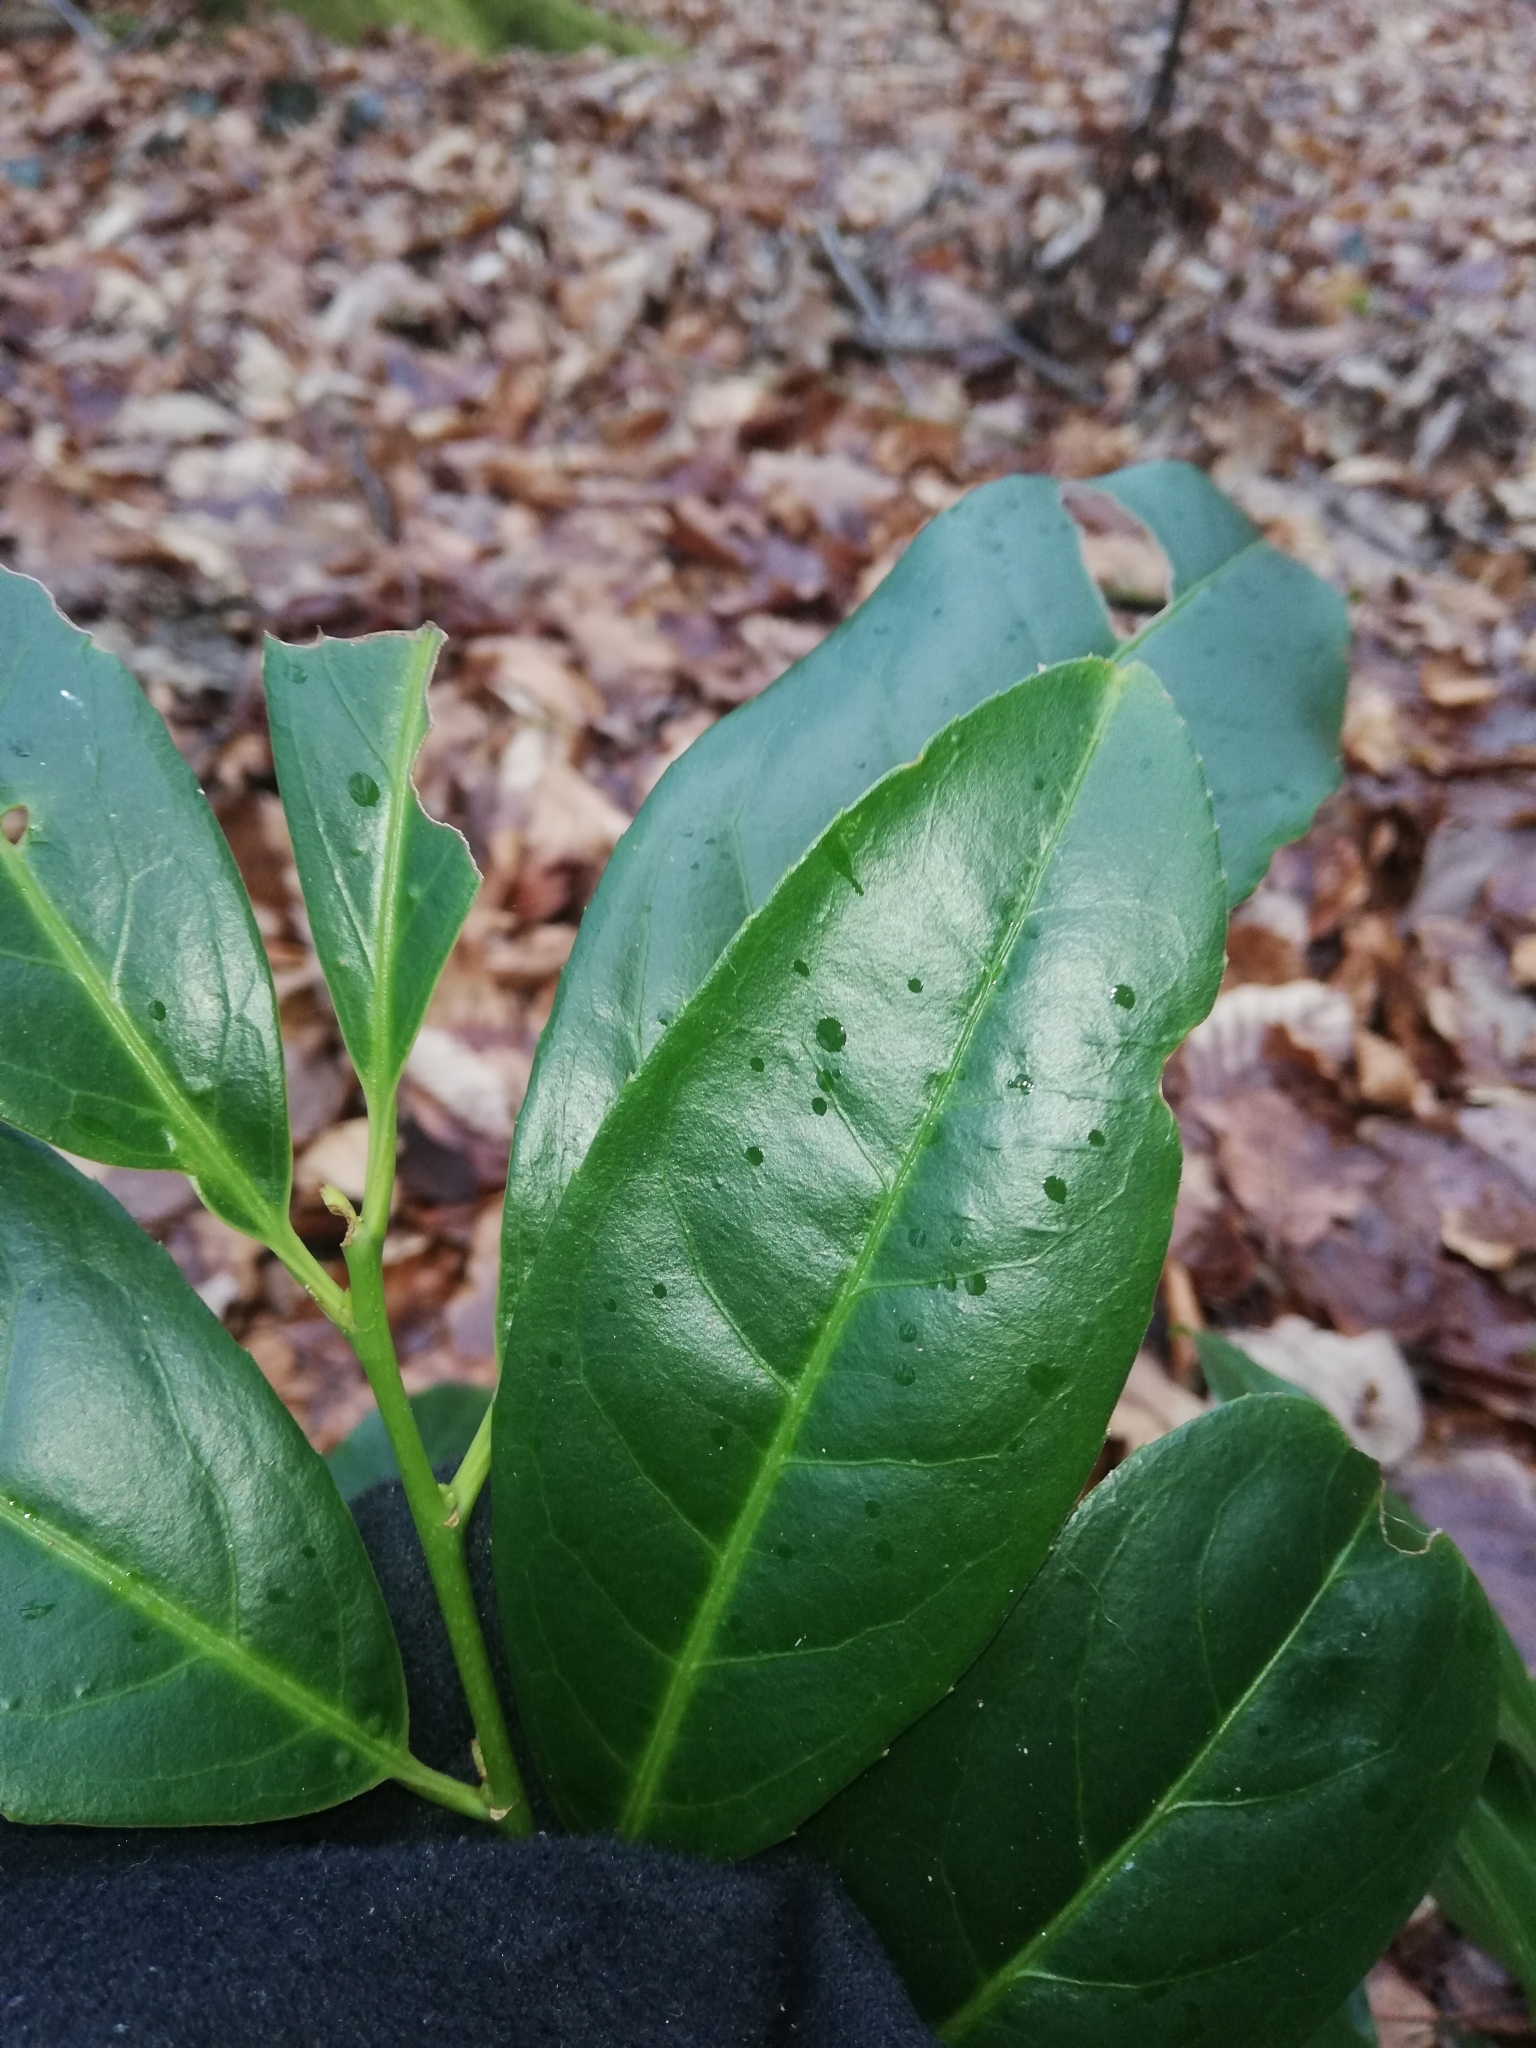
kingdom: Plantae
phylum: Tracheophyta
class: Magnoliopsida
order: Rosales
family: Rosaceae
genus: Prunus
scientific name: Prunus laurocerasus
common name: Cherry laurel
